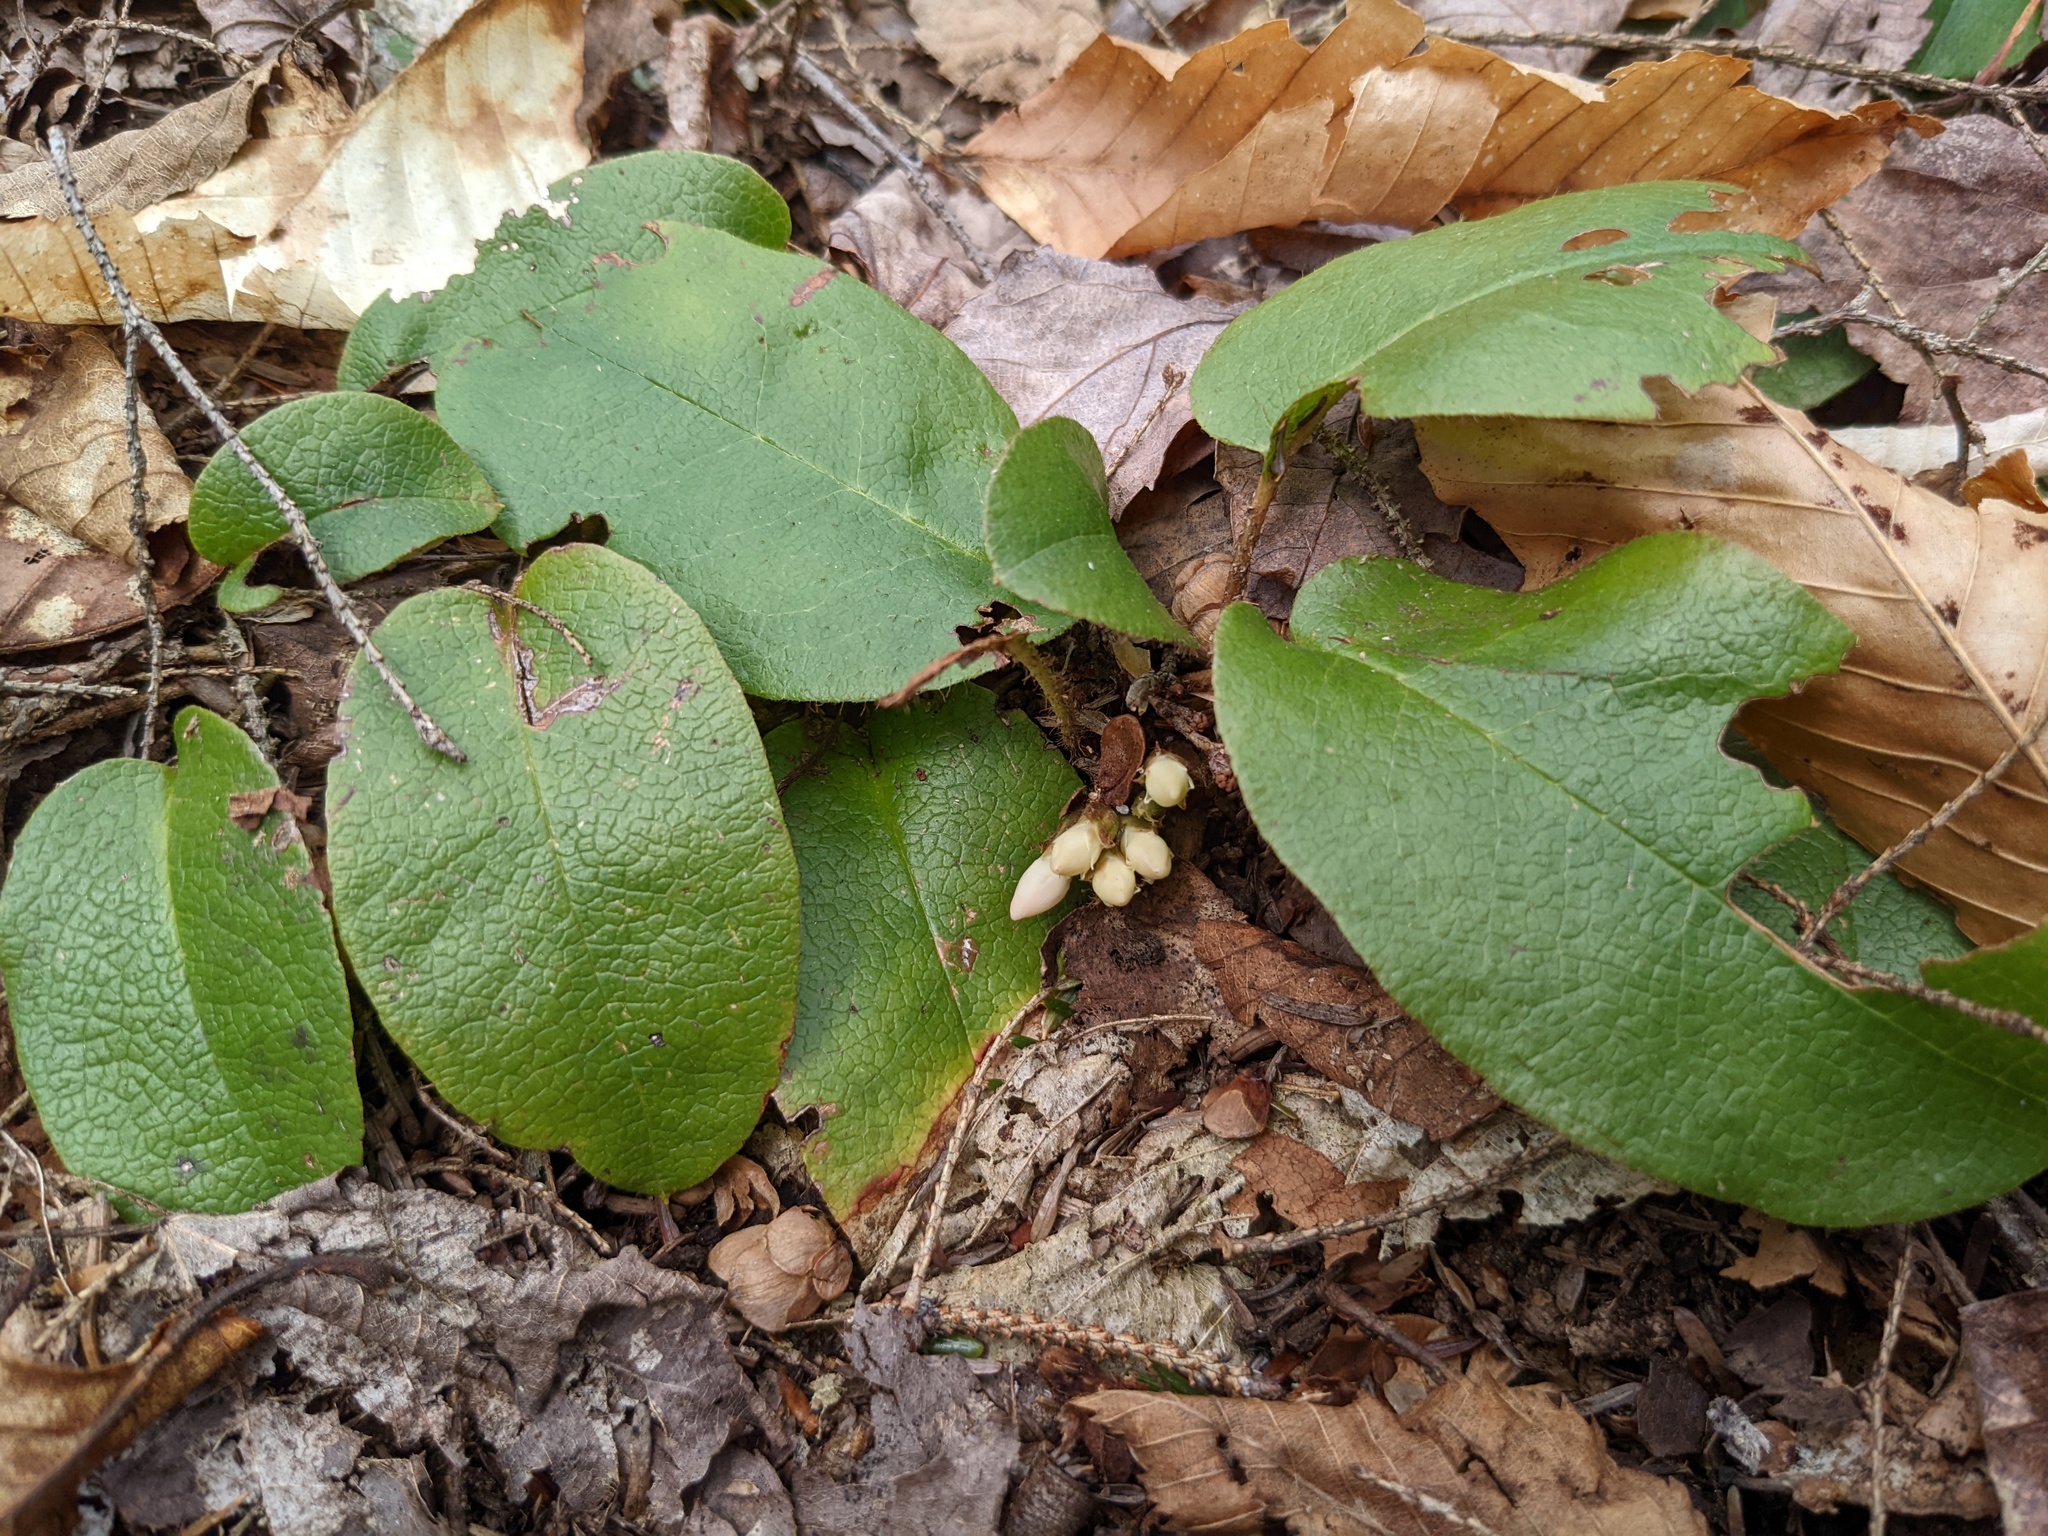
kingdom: Plantae
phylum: Tracheophyta
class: Magnoliopsida
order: Ericales
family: Ericaceae
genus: Epigaea
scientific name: Epigaea repens
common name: Gravelroot
